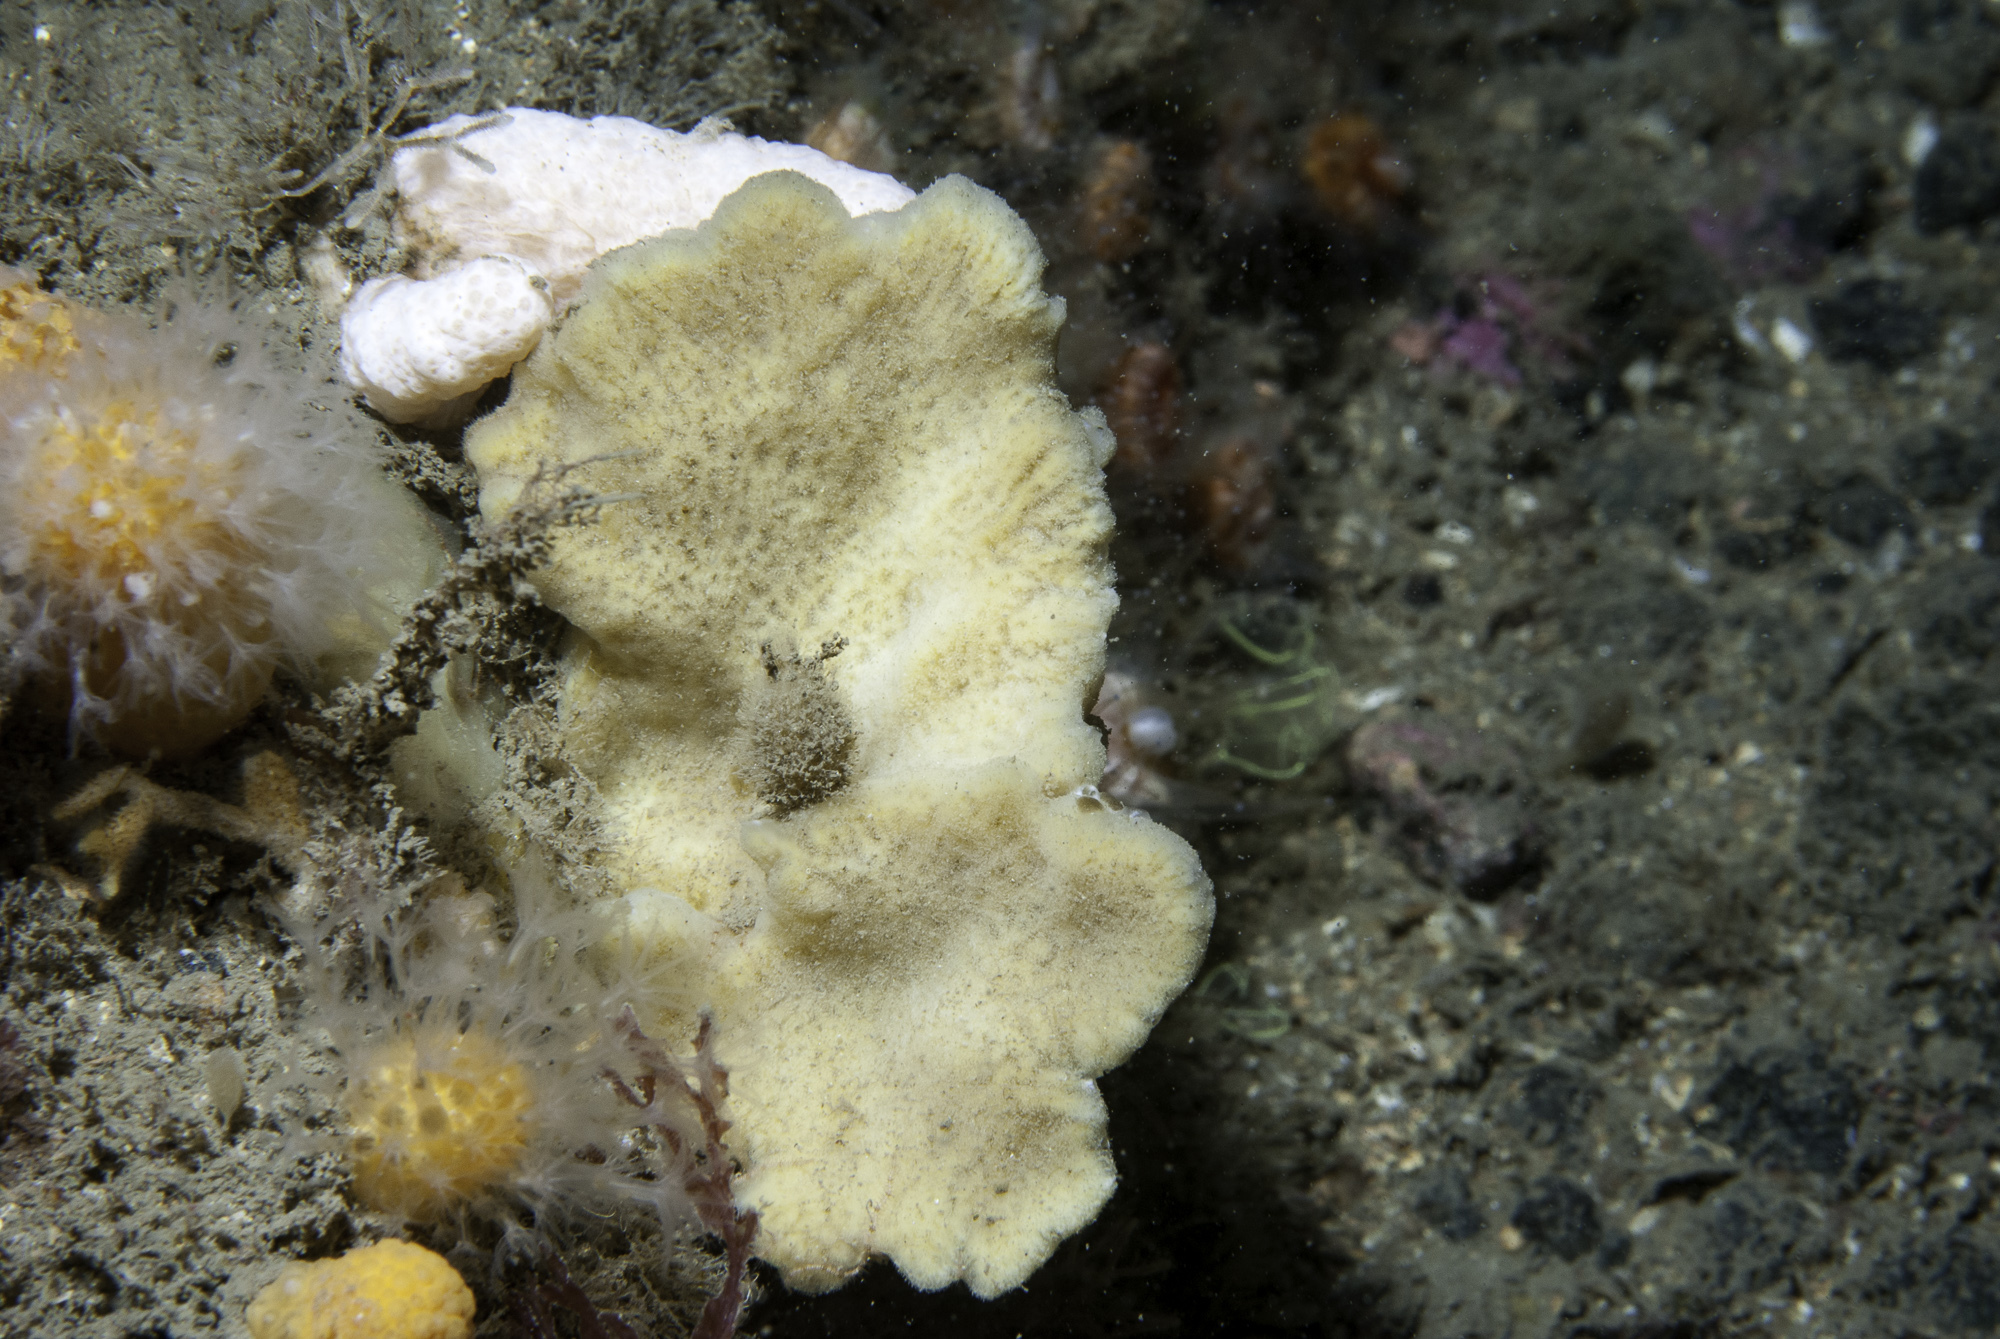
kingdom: Animalia
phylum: Porifera
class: Demospongiae
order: Poecilosclerida
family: Microcionidae
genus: Clathria
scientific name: Clathria barleei
